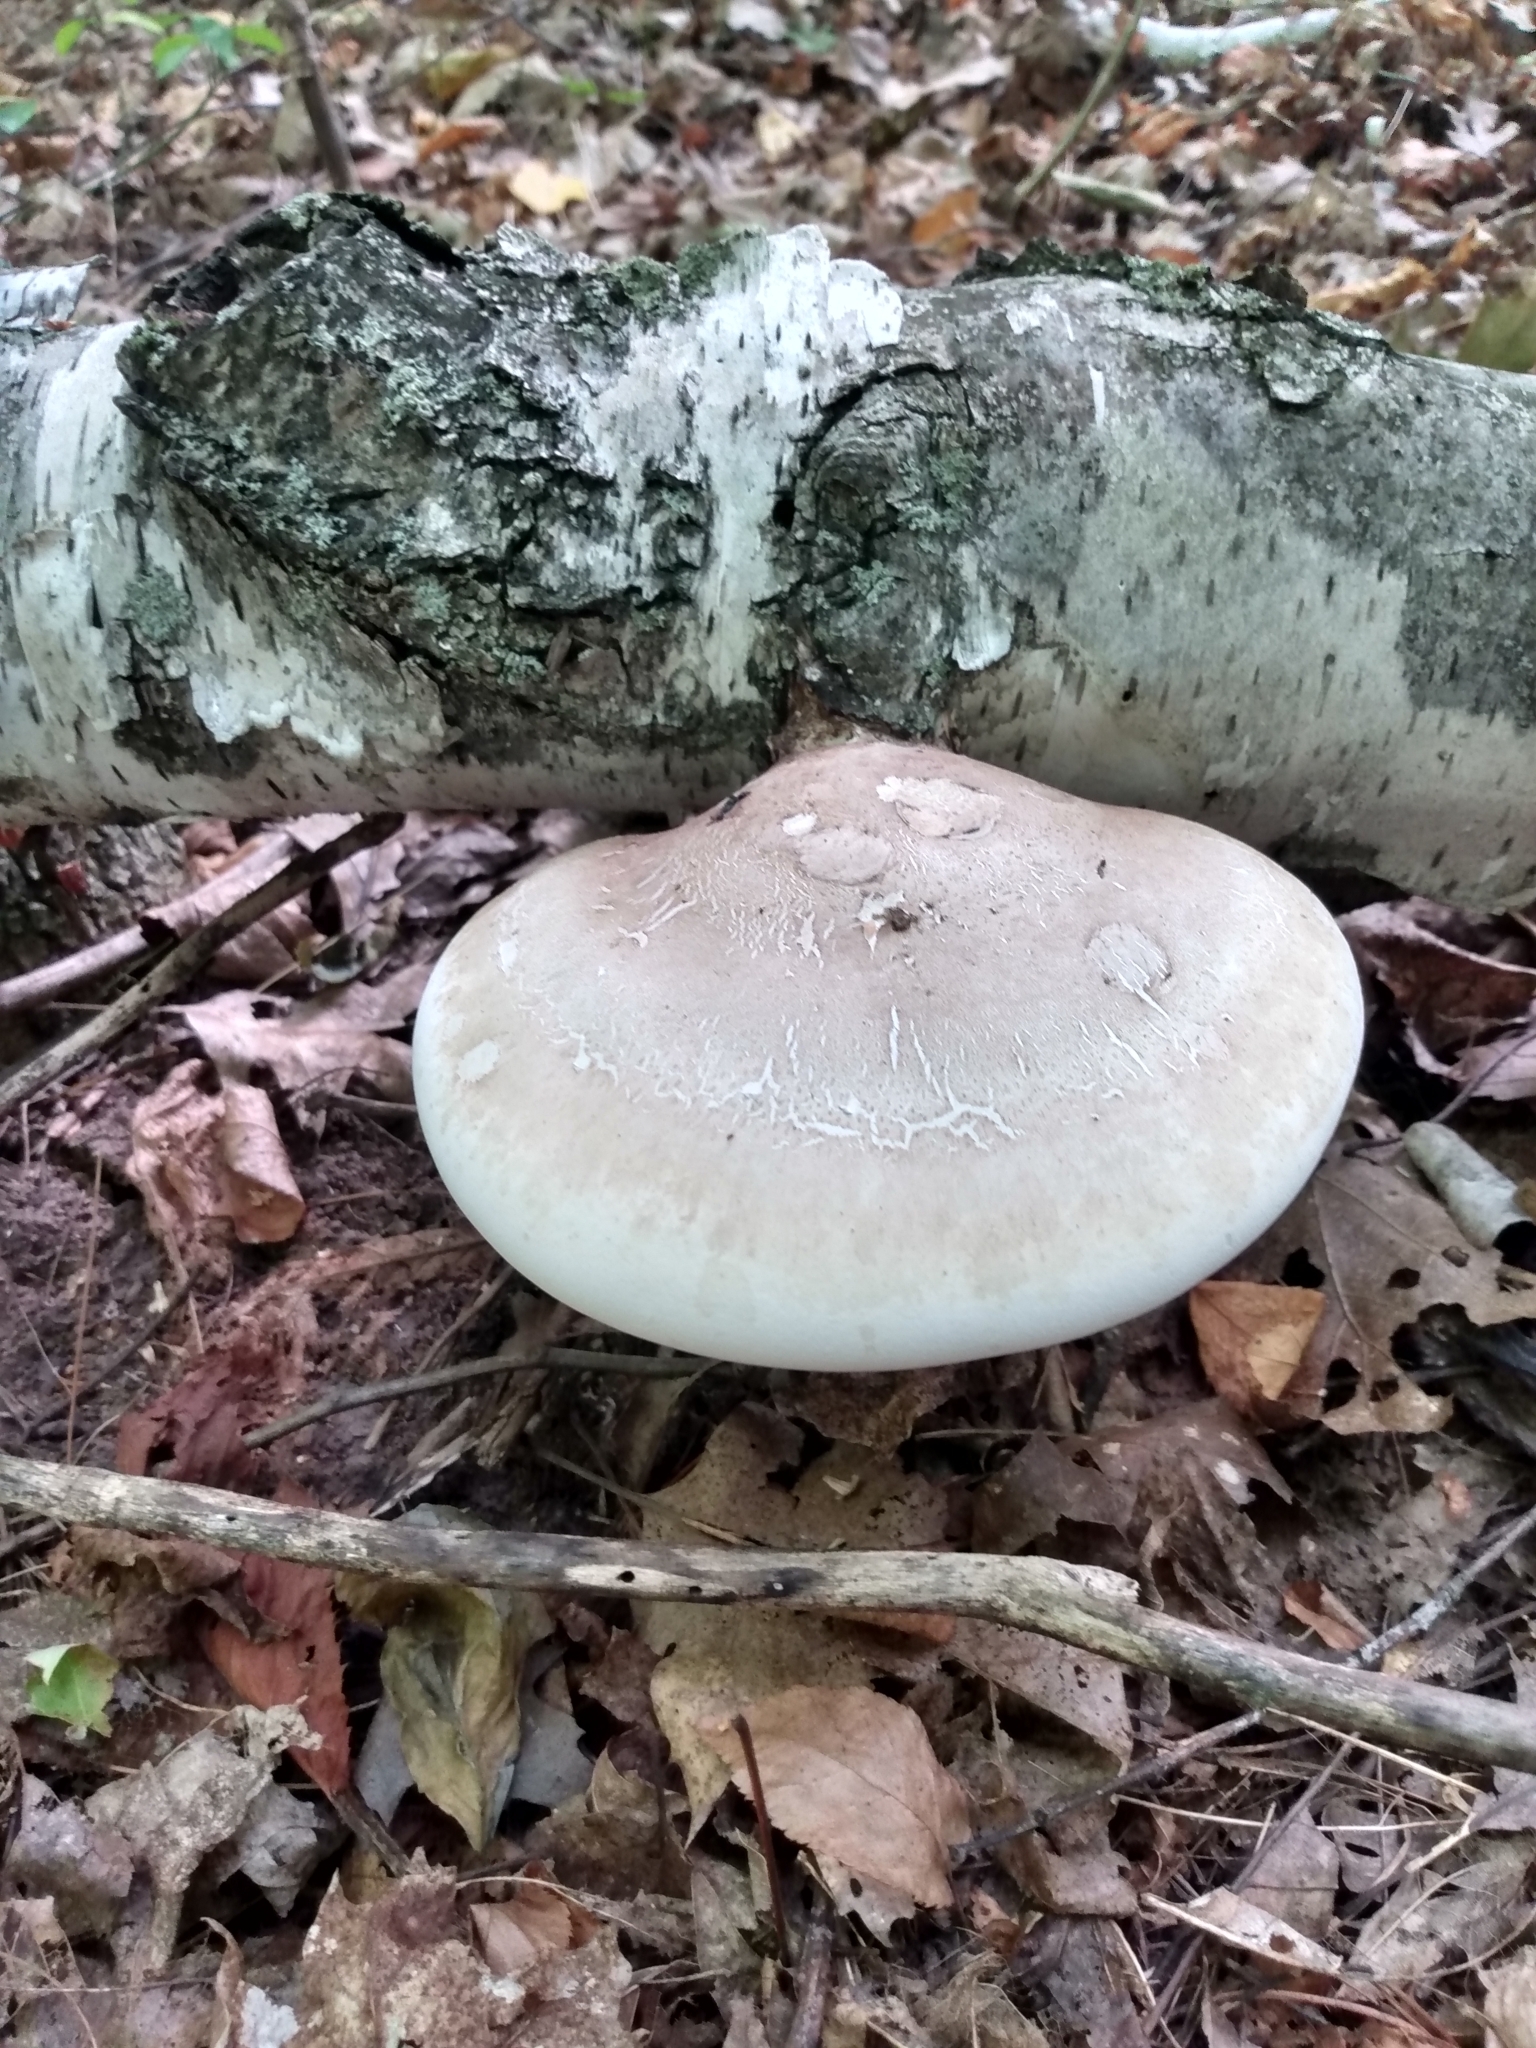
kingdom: Fungi
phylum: Basidiomycota
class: Agaricomycetes
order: Polyporales
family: Fomitopsidaceae
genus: Fomitopsis
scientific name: Fomitopsis betulina
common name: Birch polypore
